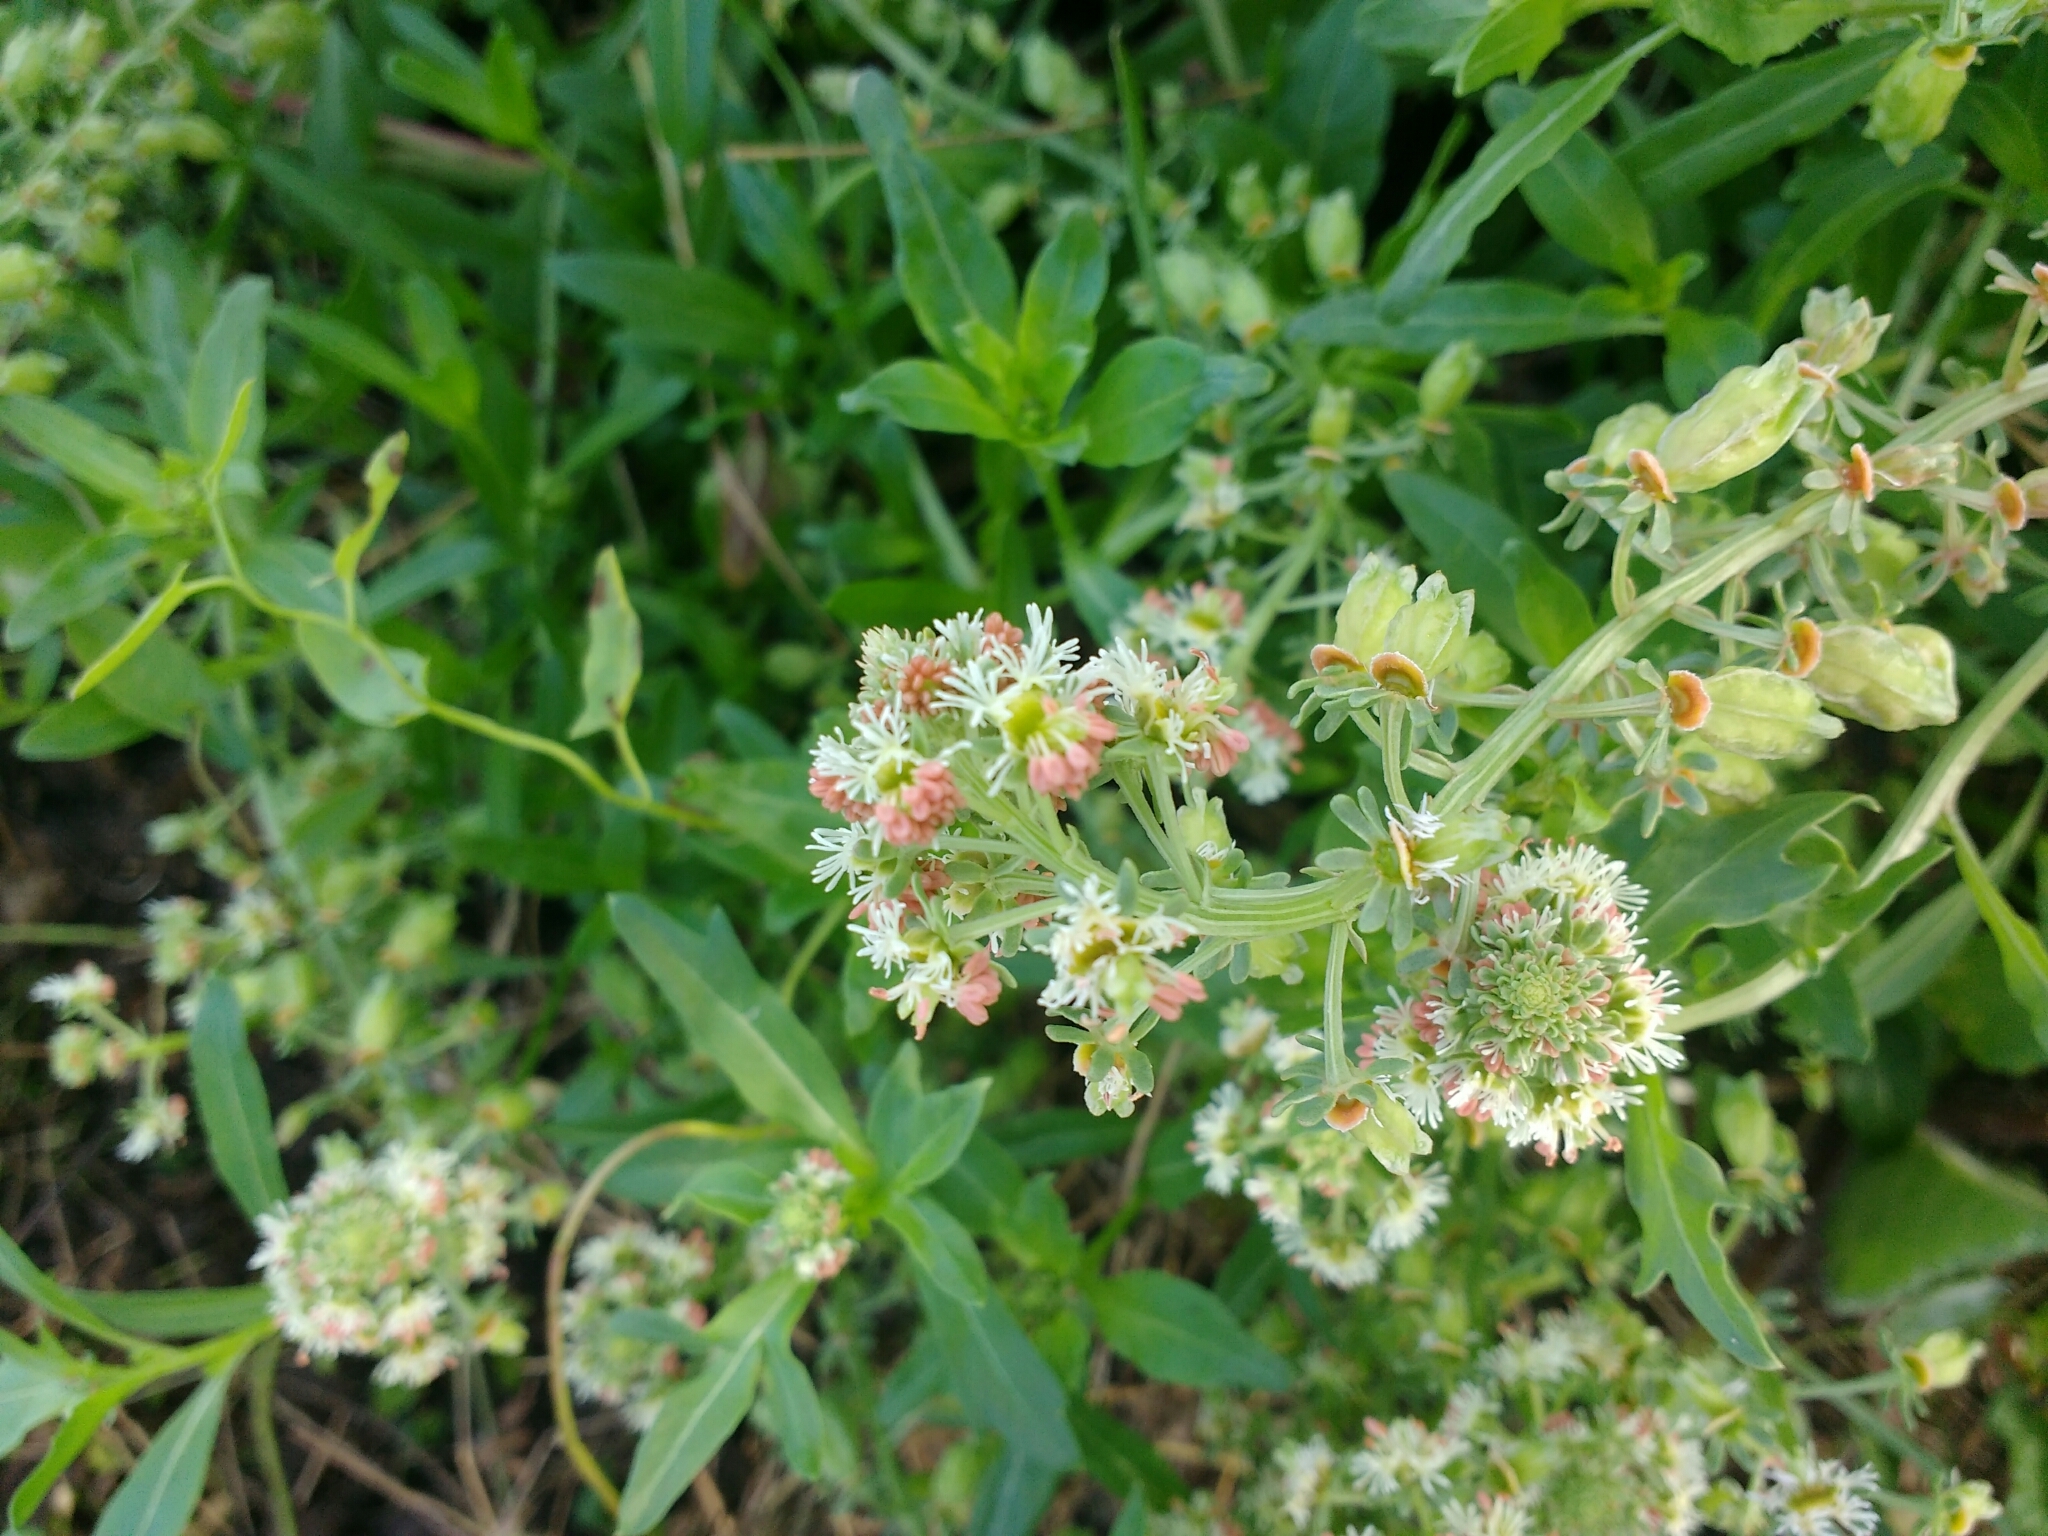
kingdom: Plantae
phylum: Tracheophyta
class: Magnoliopsida
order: Brassicales
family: Resedaceae
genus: Reseda
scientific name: Reseda phyteuma
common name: Corn mignonette
